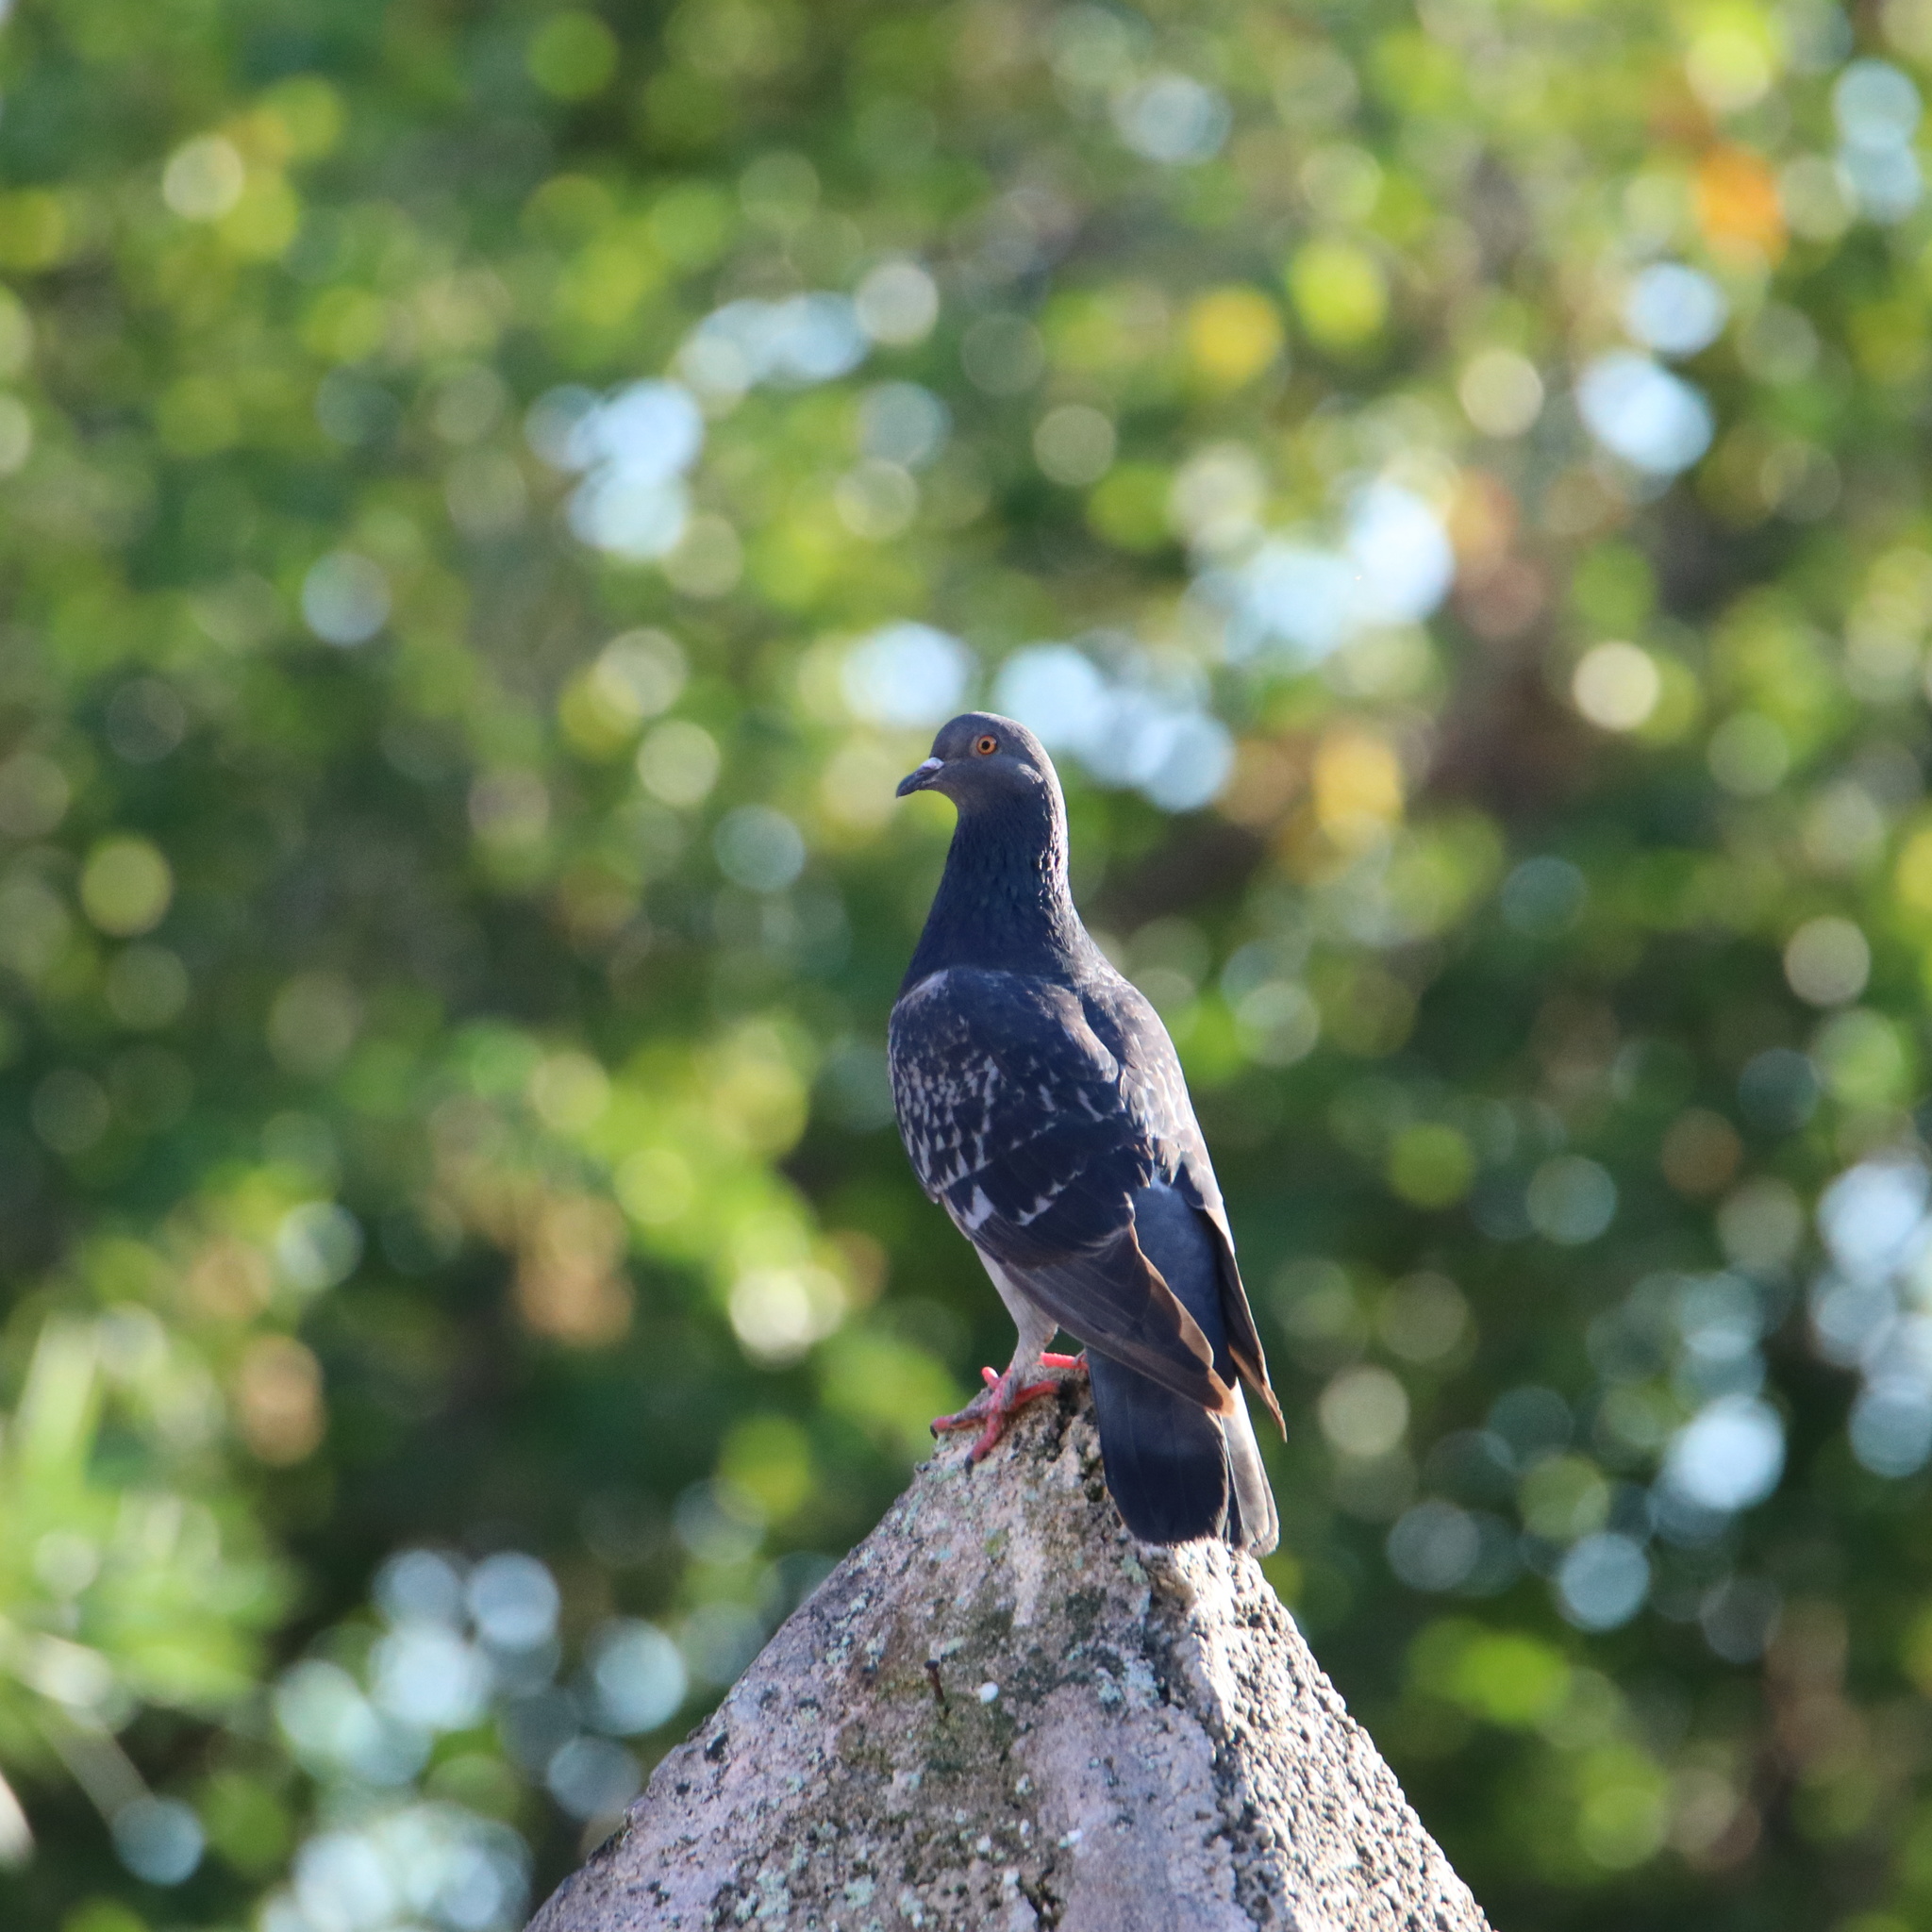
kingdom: Animalia
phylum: Chordata
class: Aves
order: Columbiformes
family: Columbidae
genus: Columba
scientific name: Columba livia
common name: Rock pigeon
